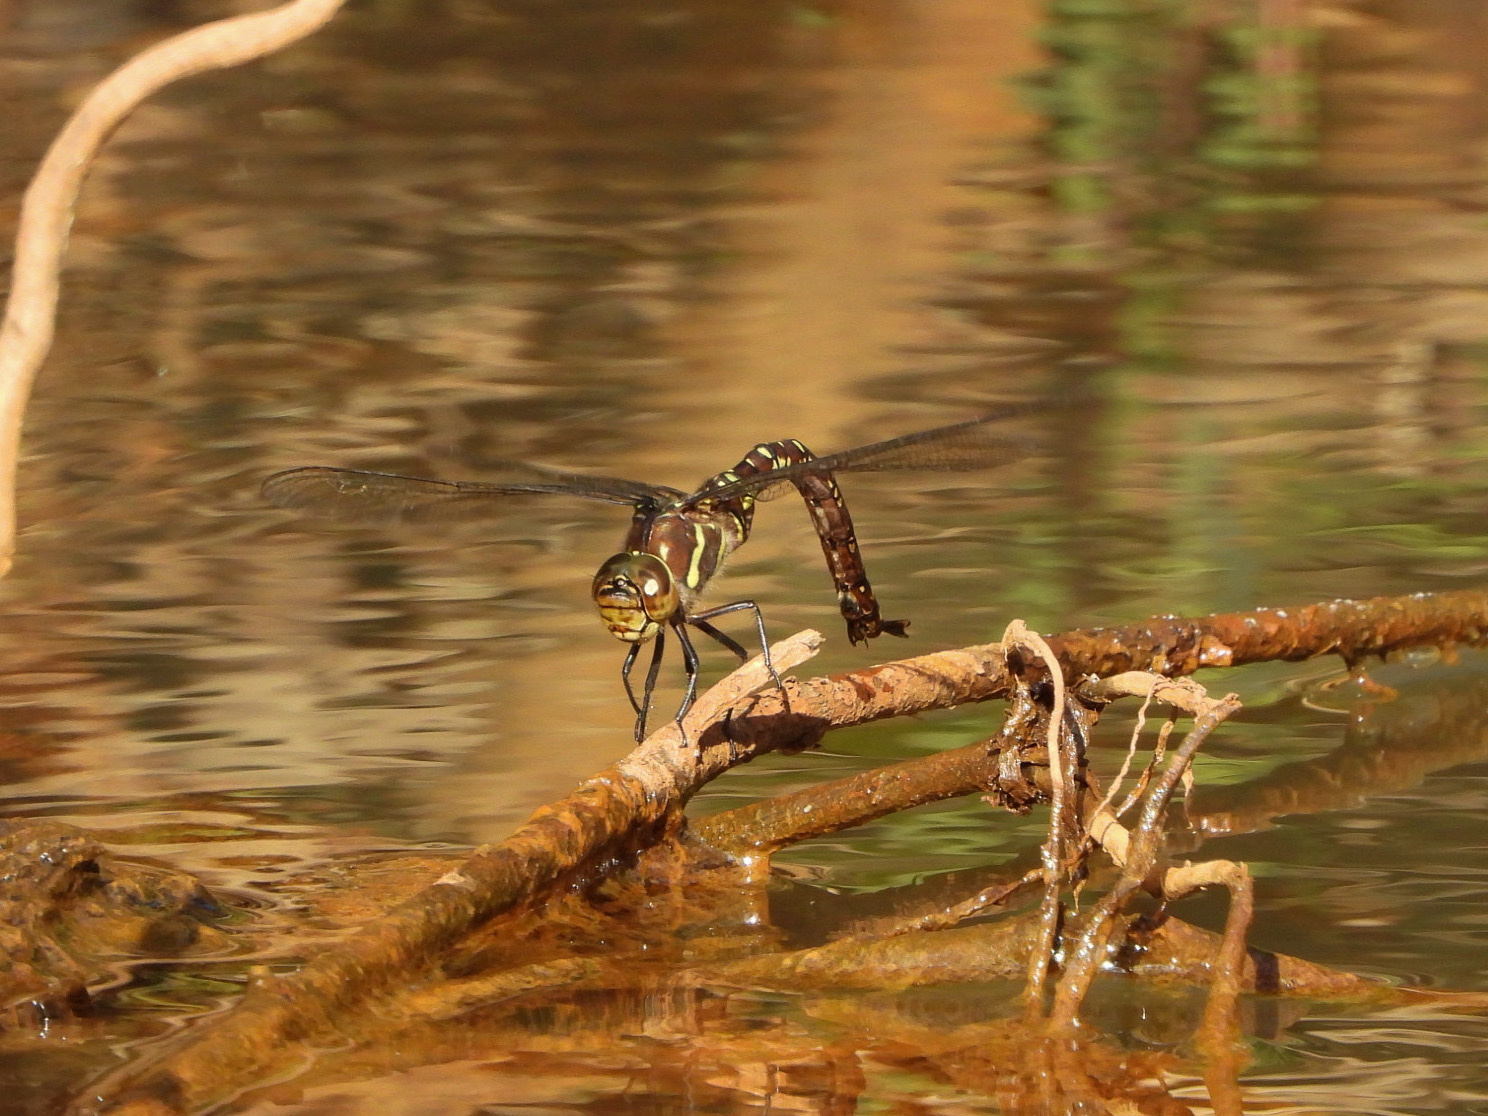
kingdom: Animalia
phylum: Arthropoda
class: Insecta
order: Odonata
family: Aeshnidae
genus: Aeshna
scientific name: Aeshna palmata
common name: Paddle-tailed darner
